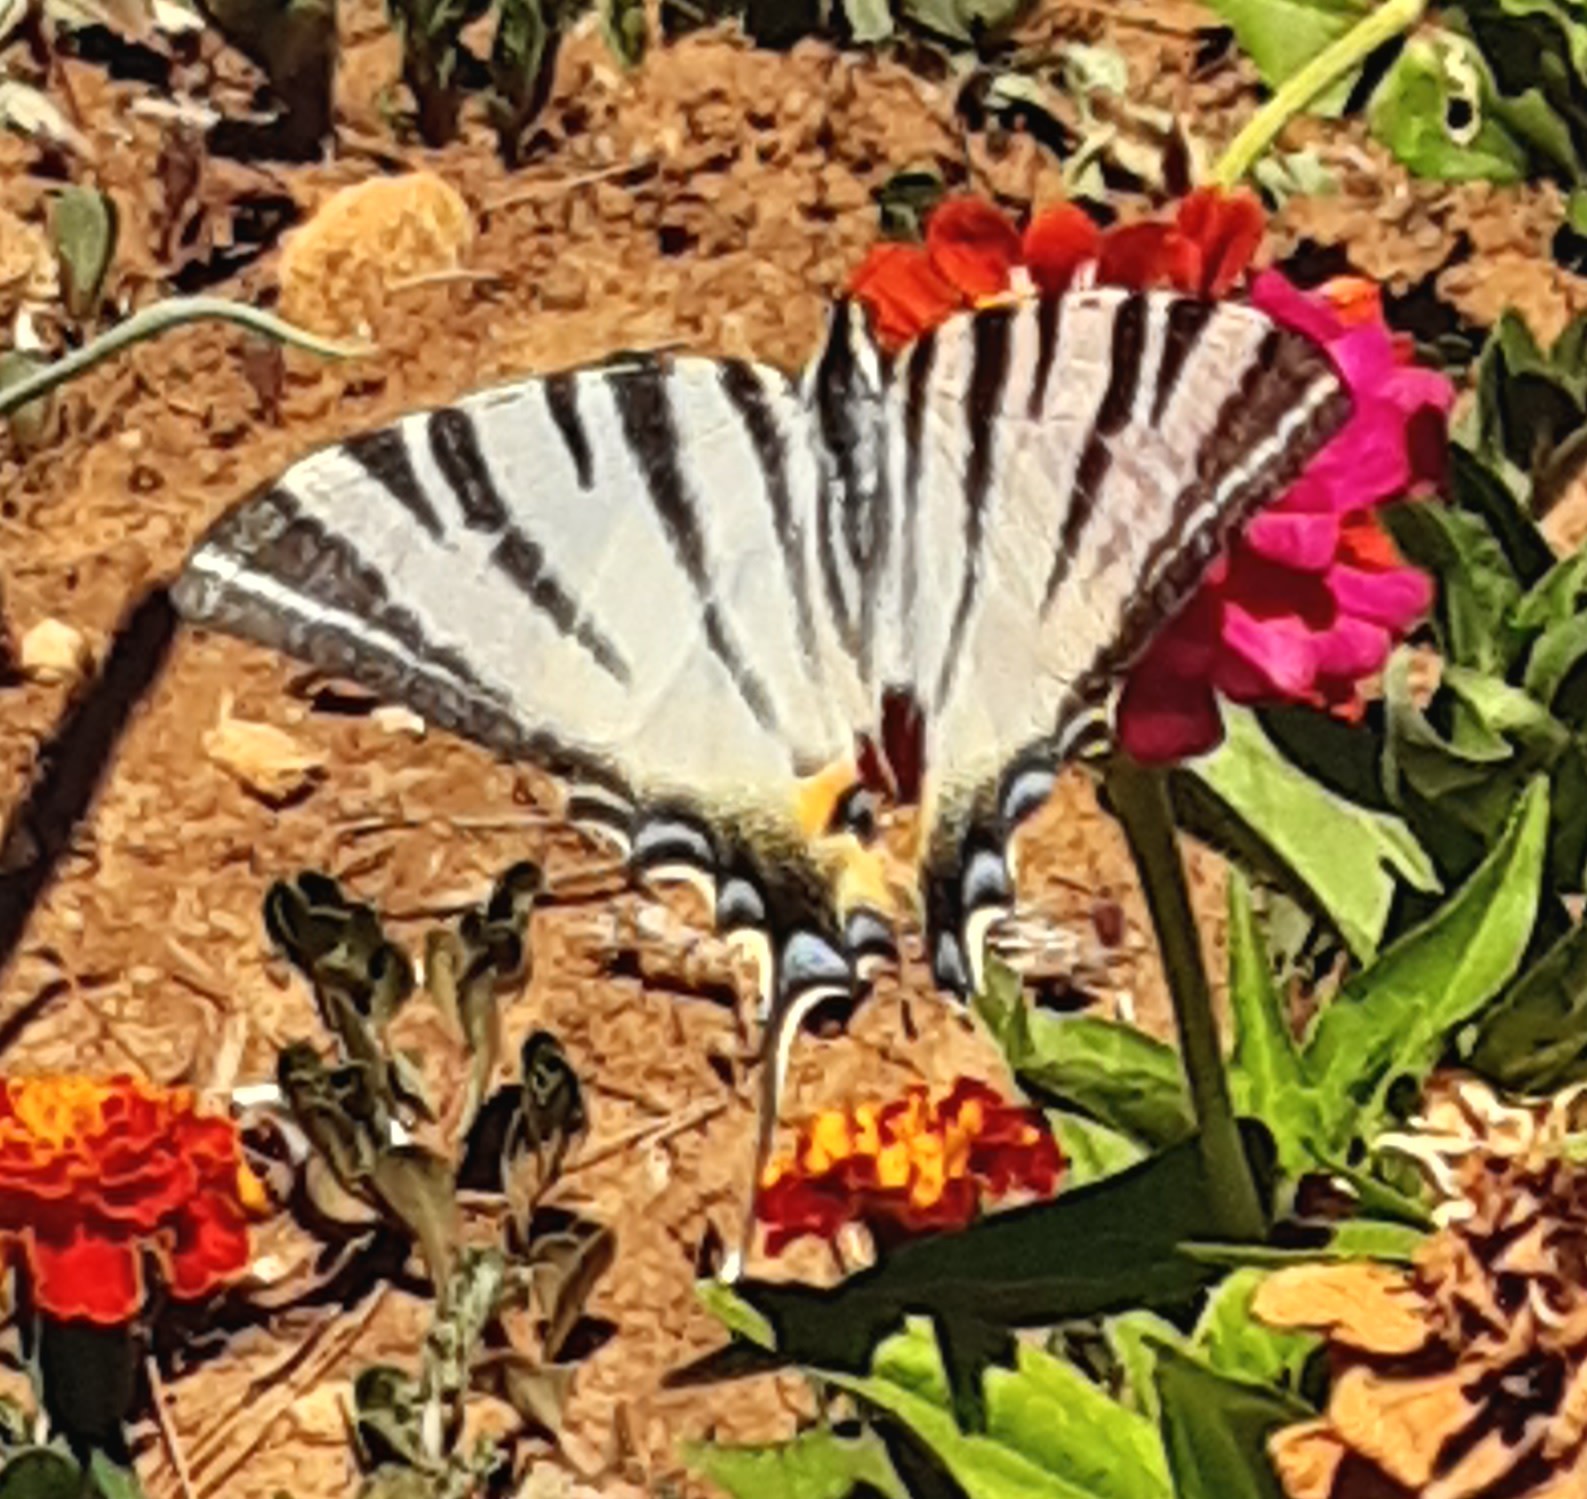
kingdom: Animalia
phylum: Arthropoda
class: Insecta
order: Lepidoptera
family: Papilionidae
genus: Iphiclides
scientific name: Iphiclides podalirius
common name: Scarce swallowtail
